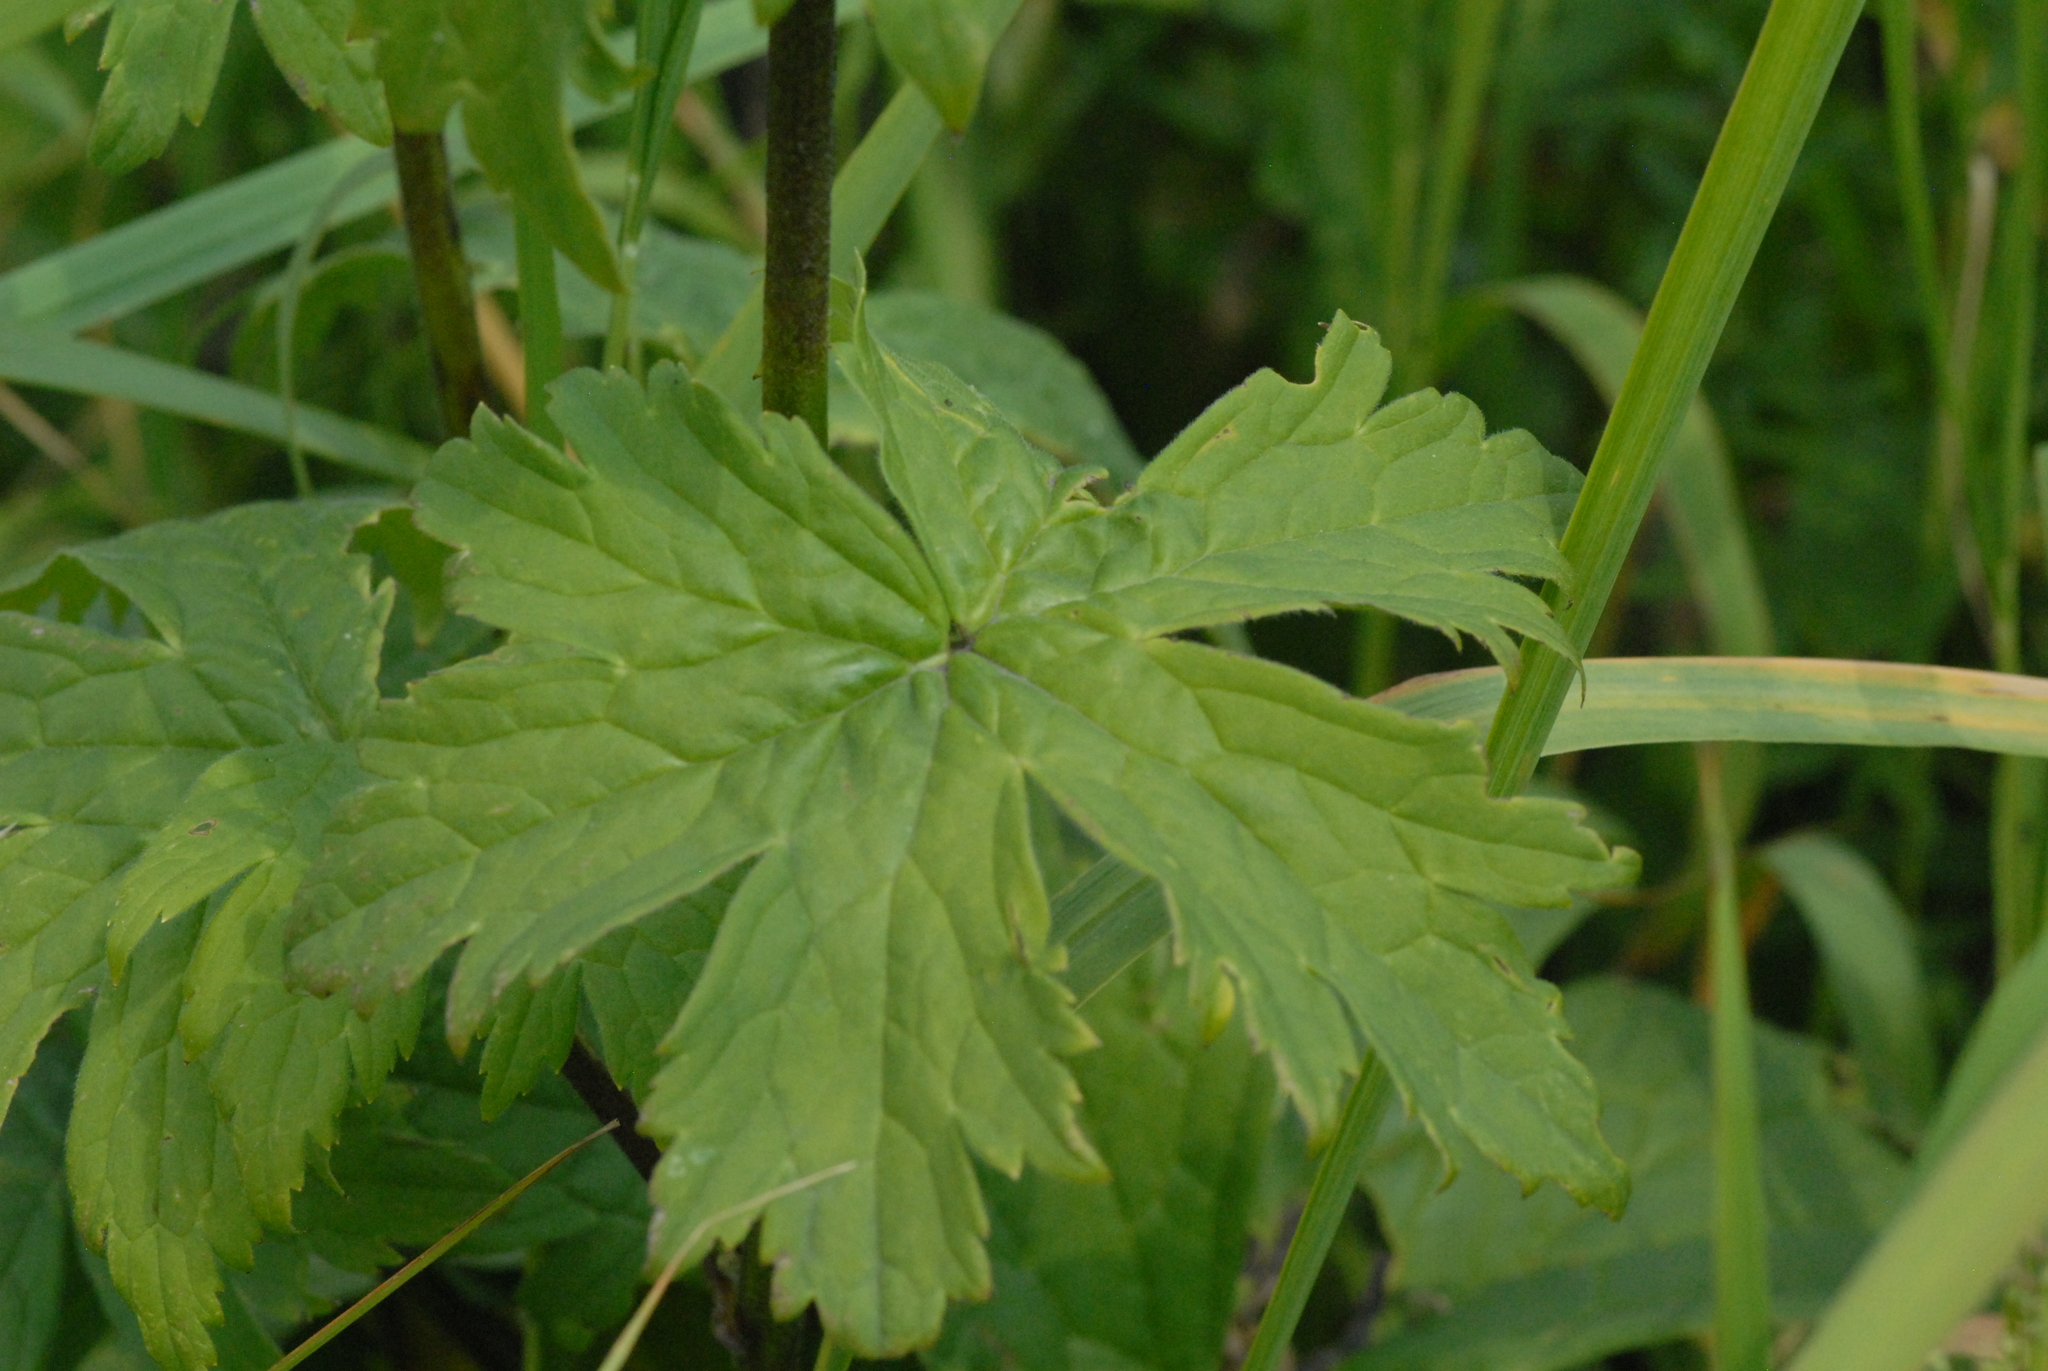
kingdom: Plantae
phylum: Tracheophyta
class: Magnoliopsida
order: Ranunculales
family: Ranunculaceae
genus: Aconitum
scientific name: Aconitum septentrionale
